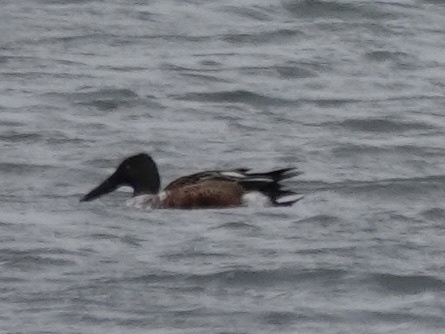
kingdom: Animalia
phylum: Chordata
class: Aves
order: Anseriformes
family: Anatidae
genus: Spatula
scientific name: Spatula clypeata
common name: Northern shoveler
